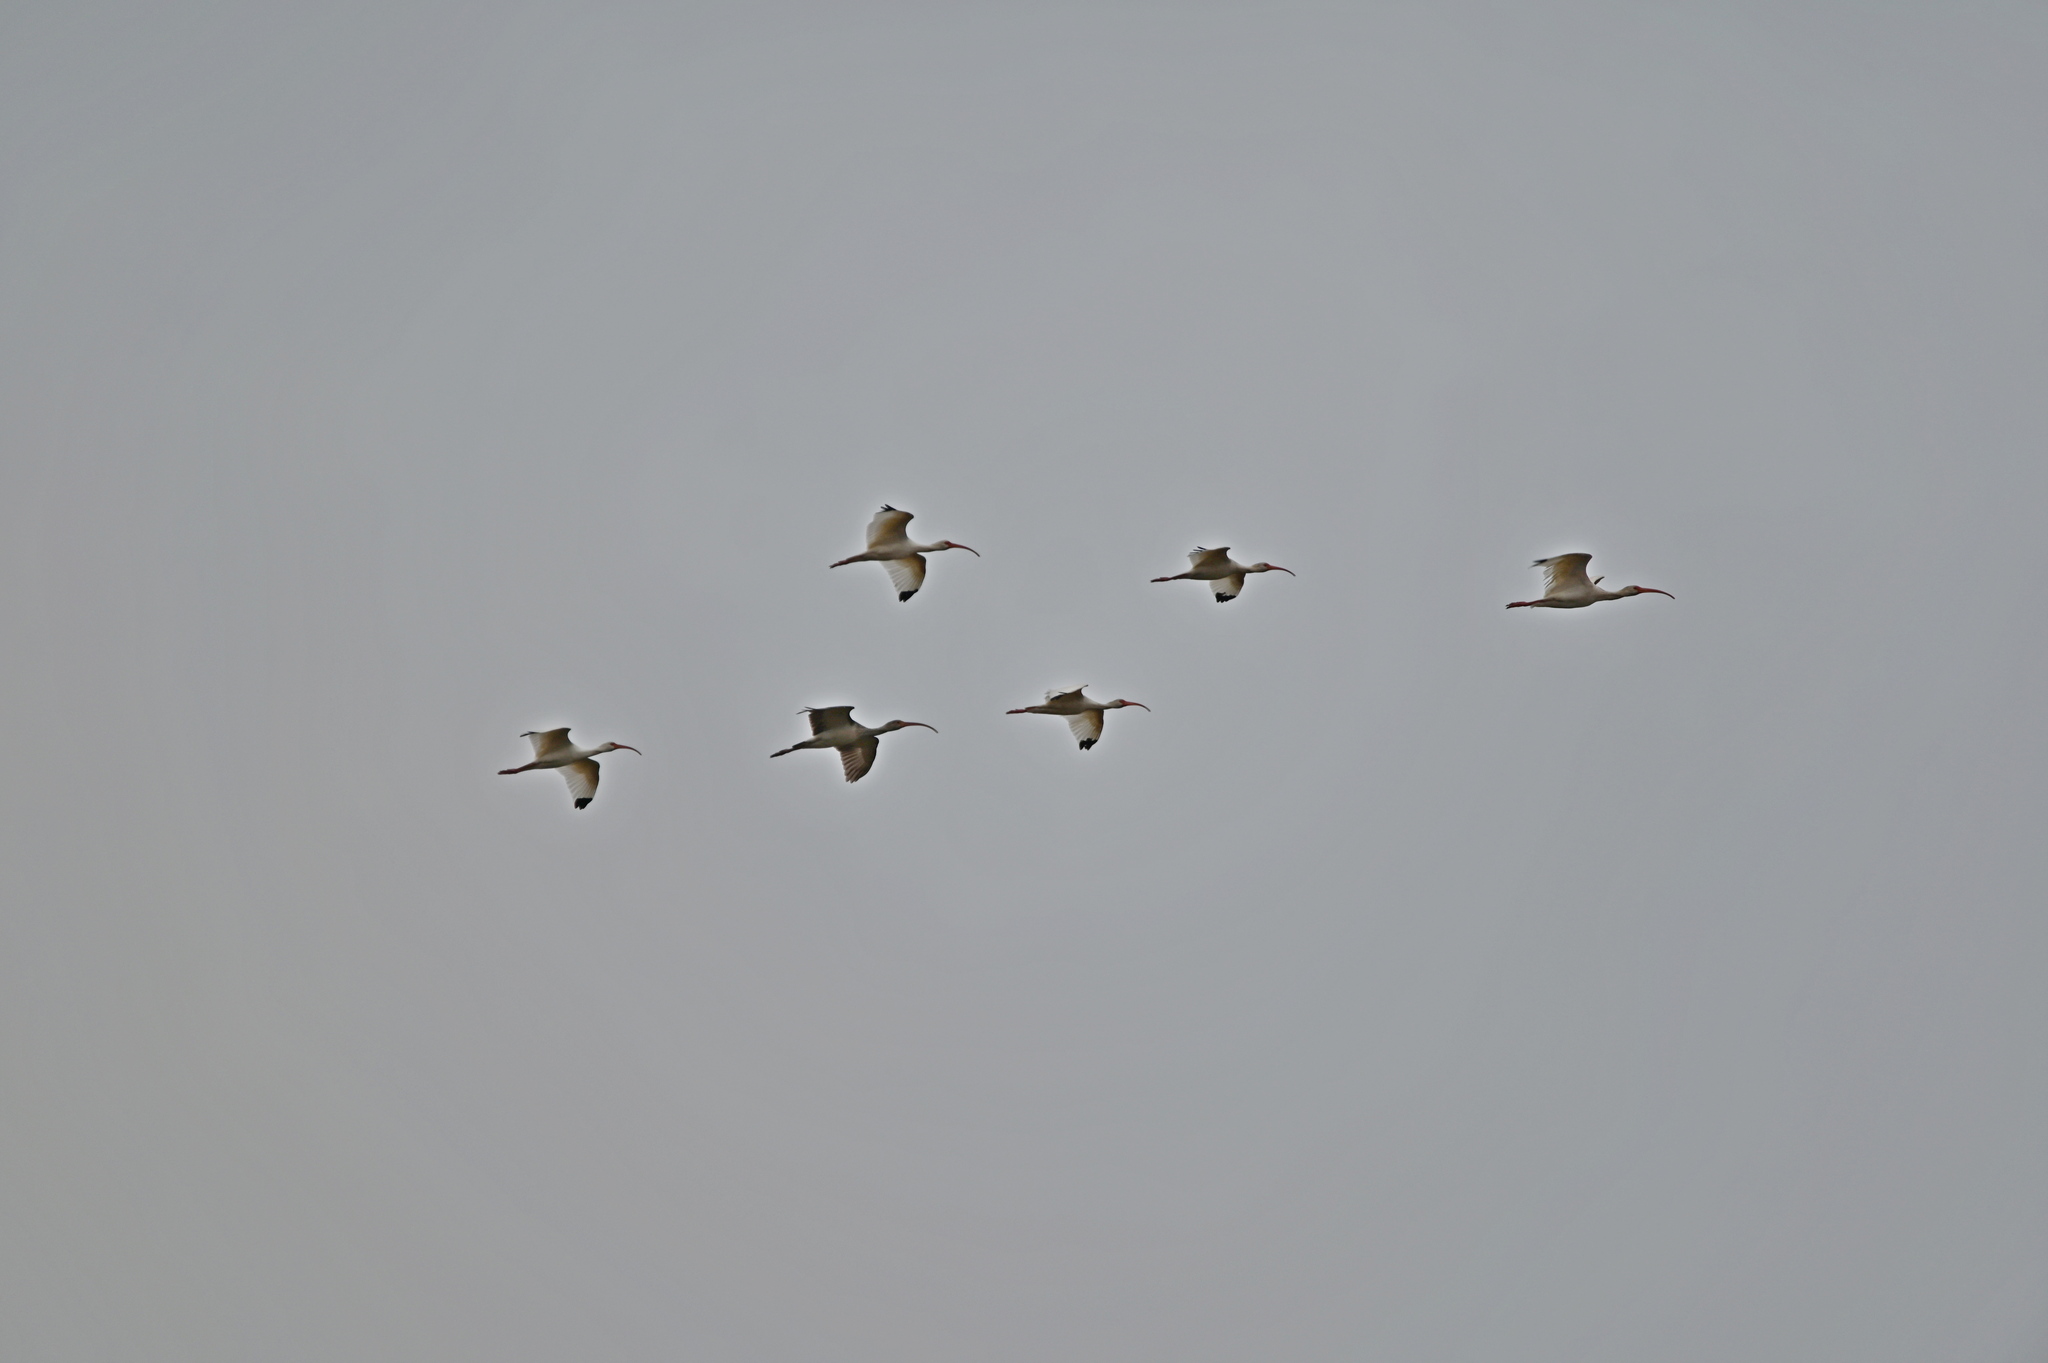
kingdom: Animalia
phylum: Chordata
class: Aves
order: Pelecaniformes
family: Threskiornithidae
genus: Eudocimus
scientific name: Eudocimus albus
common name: White ibis
